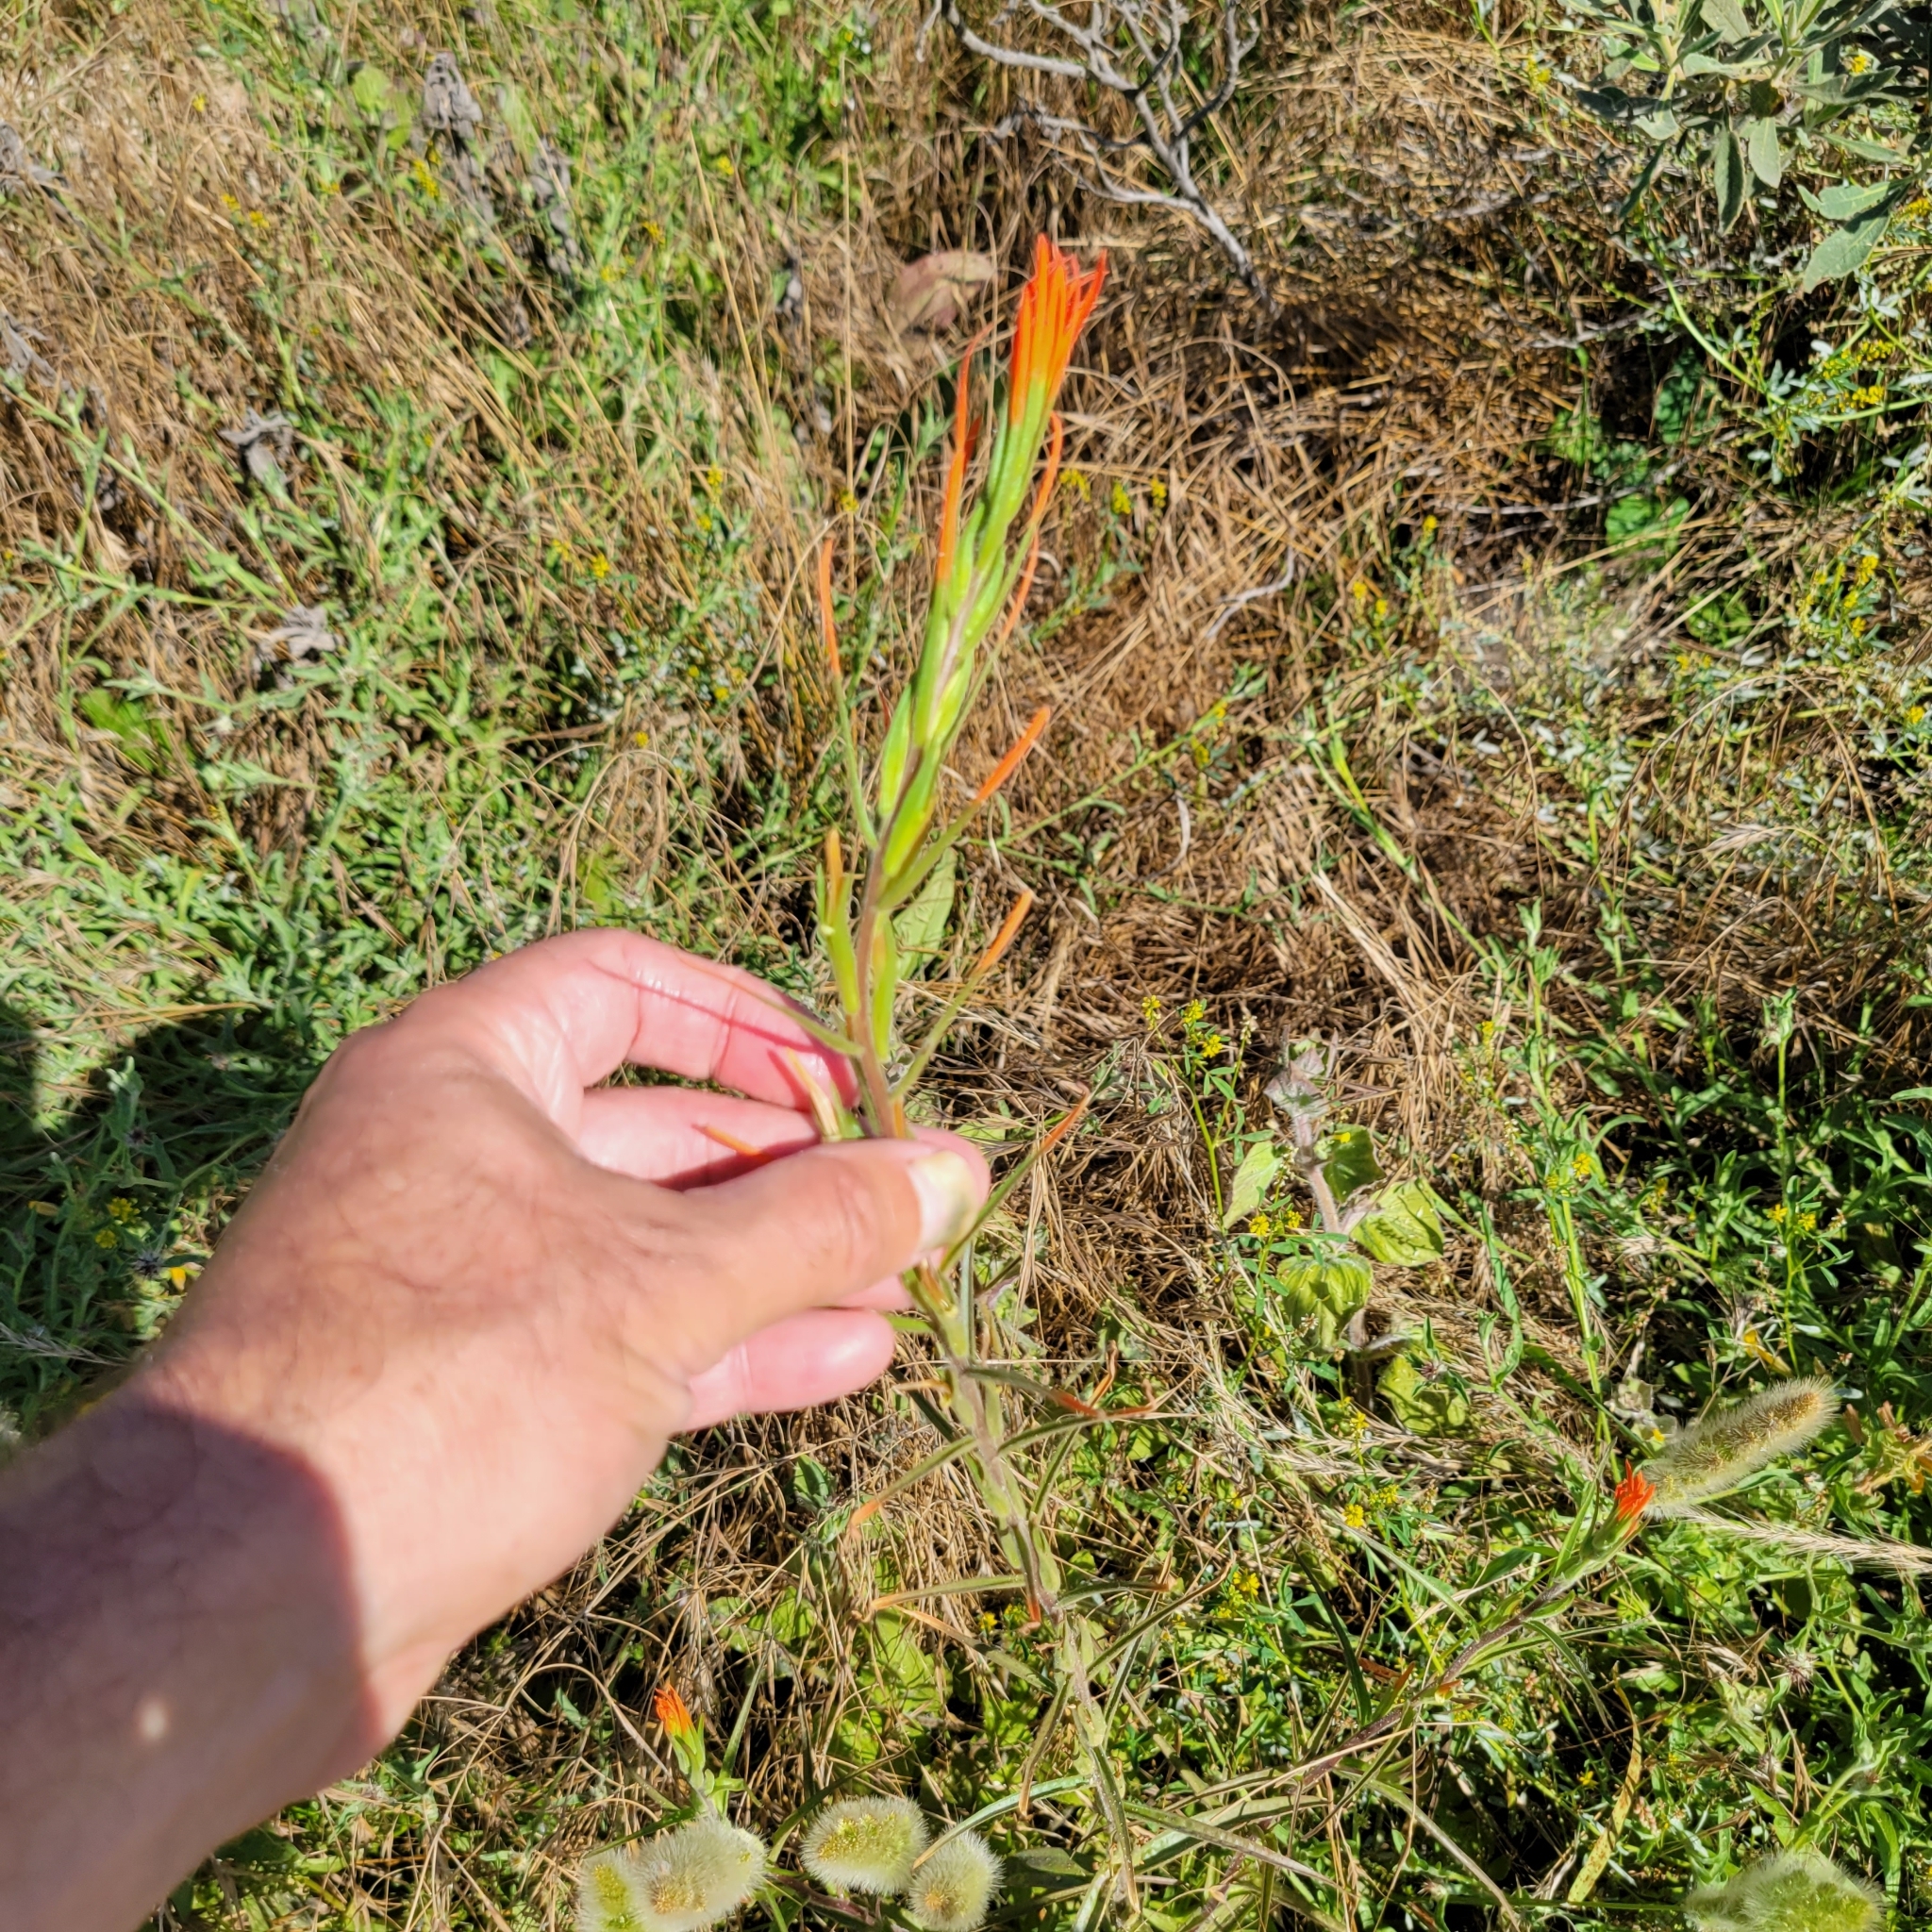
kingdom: Plantae
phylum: Tracheophyta
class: Magnoliopsida
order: Lamiales
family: Orobanchaceae
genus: Castilleja
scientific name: Castilleja minor
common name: Seep paintbrush
